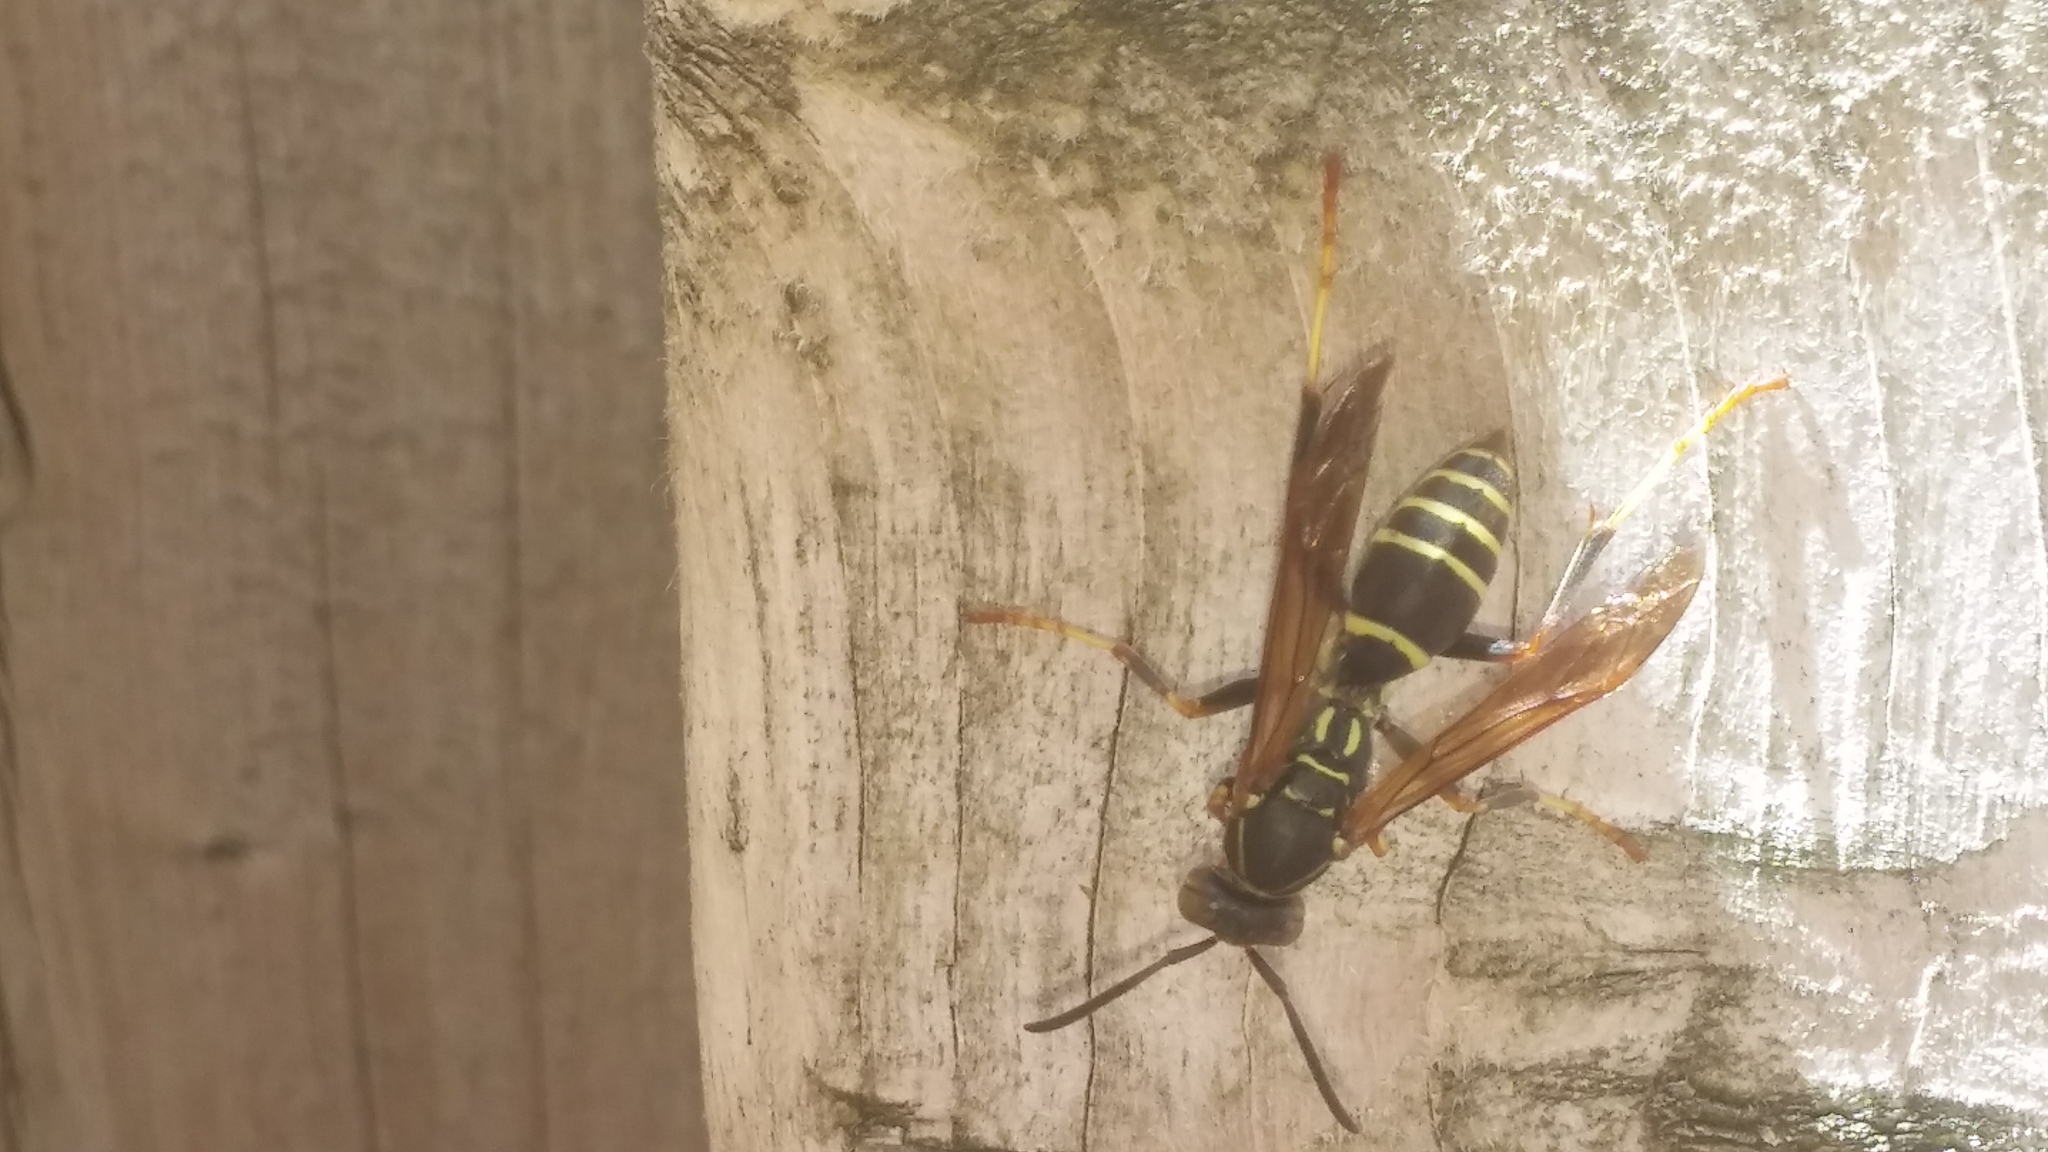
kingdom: Animalia
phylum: Arthropoda
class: Insecta
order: Hymenoptera
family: Eumenidae
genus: Polistes
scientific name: Polistes fuscatus
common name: Dark paper wasp
